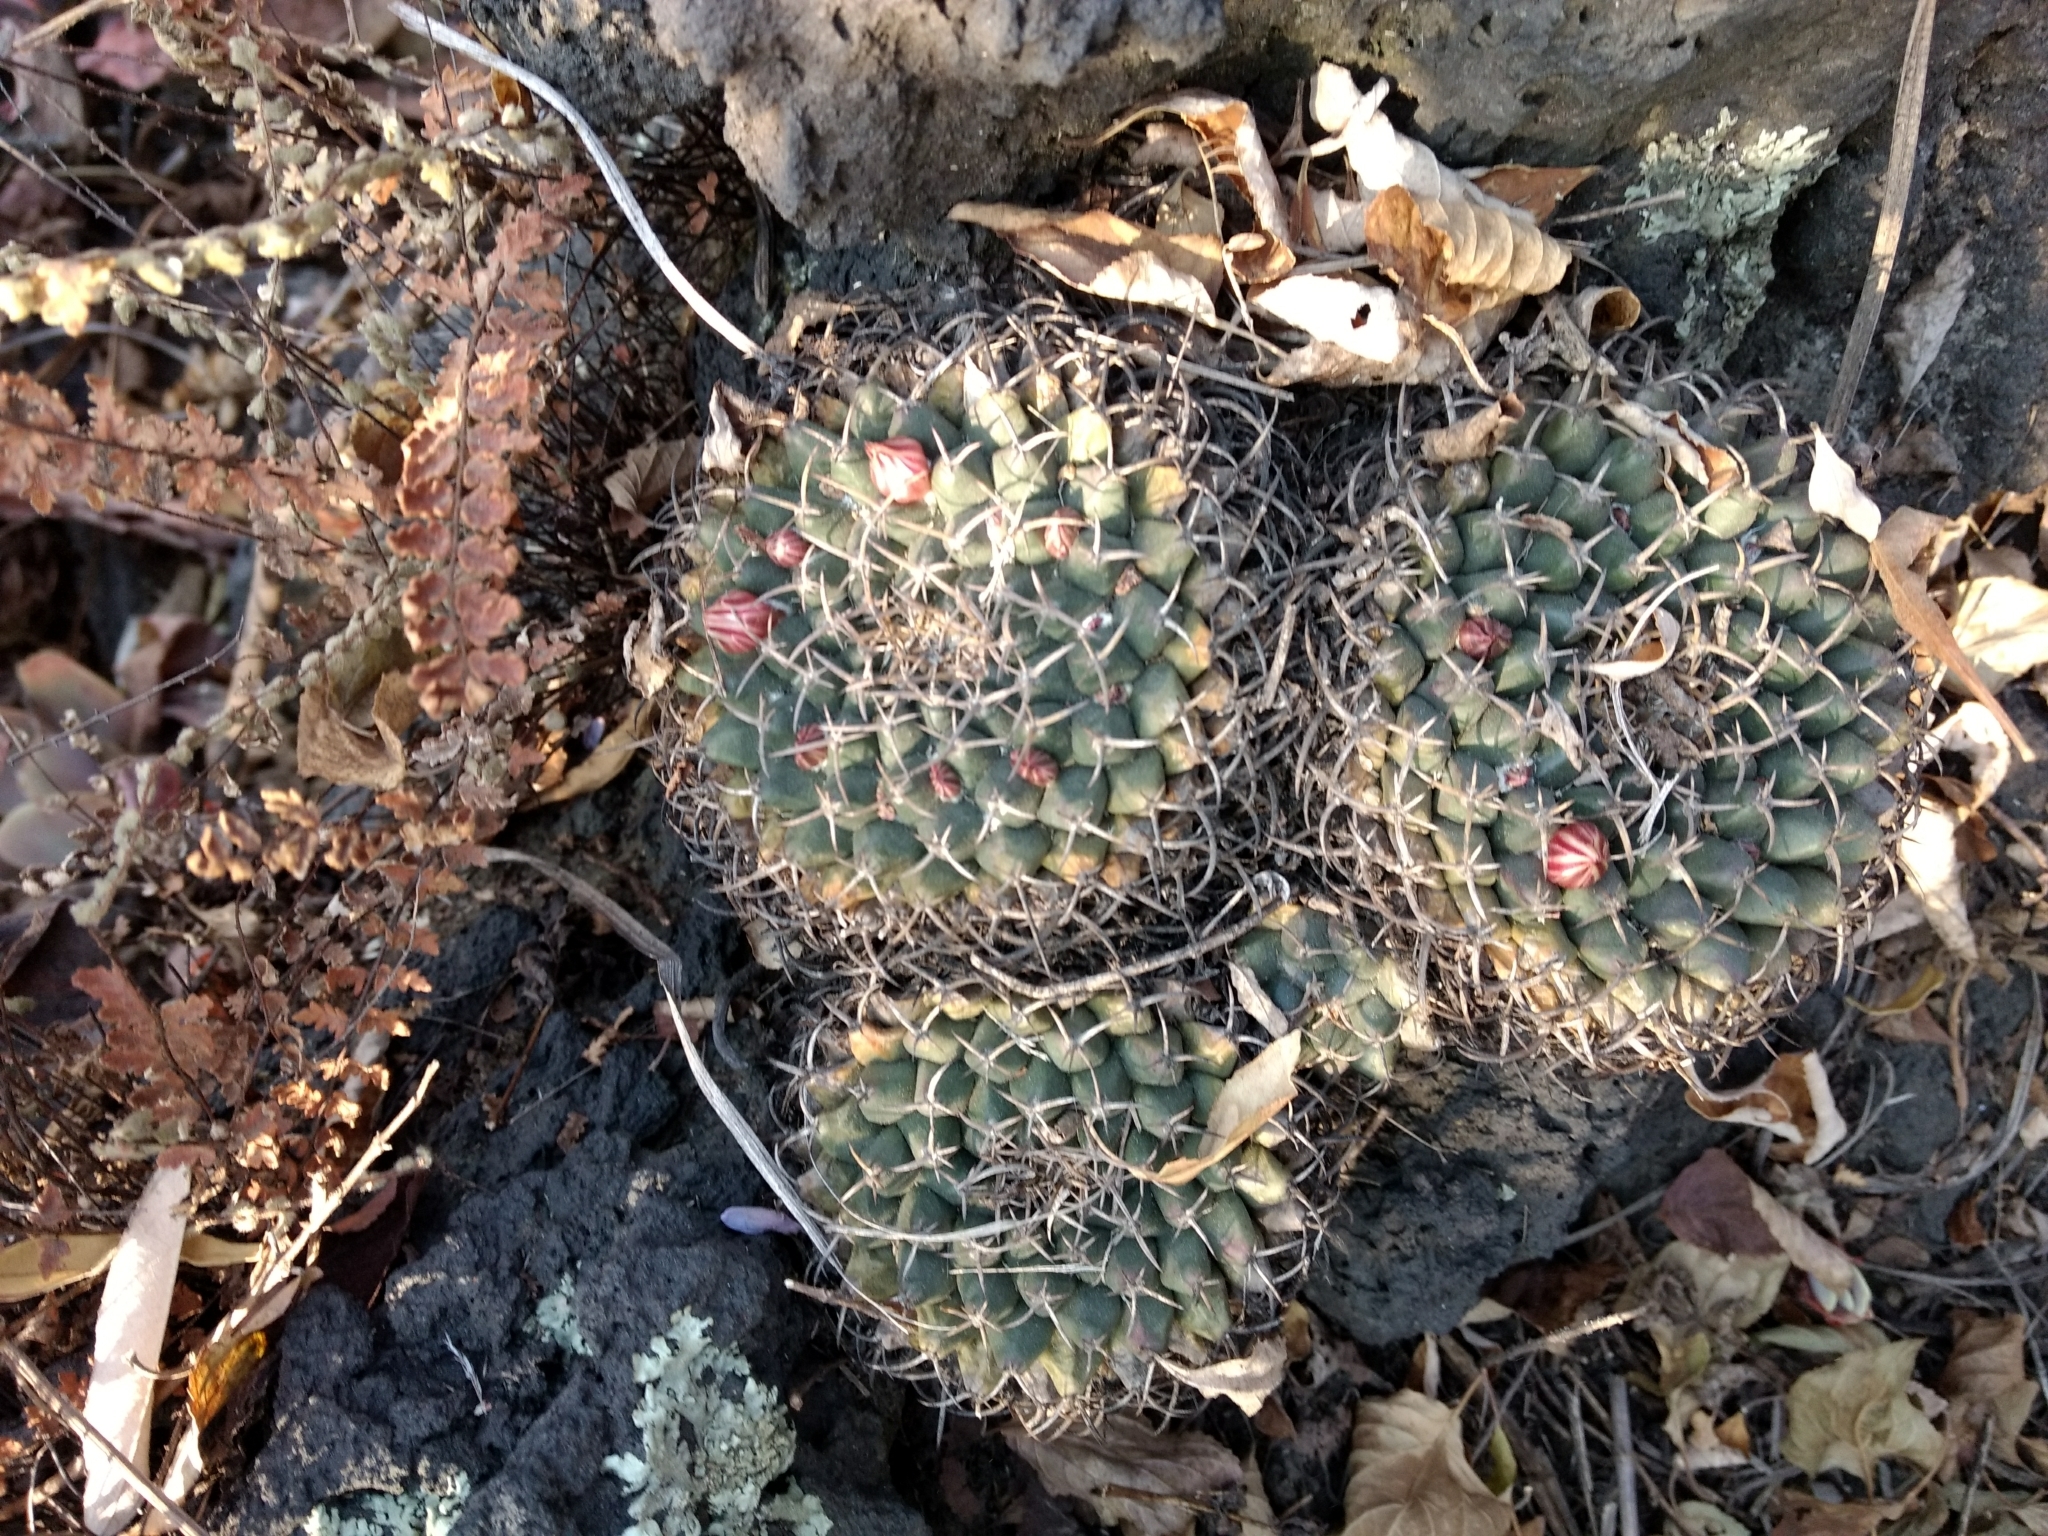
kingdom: Plantae
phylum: Tracheophyta
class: Magnoliopsida
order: Caryophyllales
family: Cactaceae
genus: Mammillaria
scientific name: Mammillaria magnimamma
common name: Mexican pincushion
